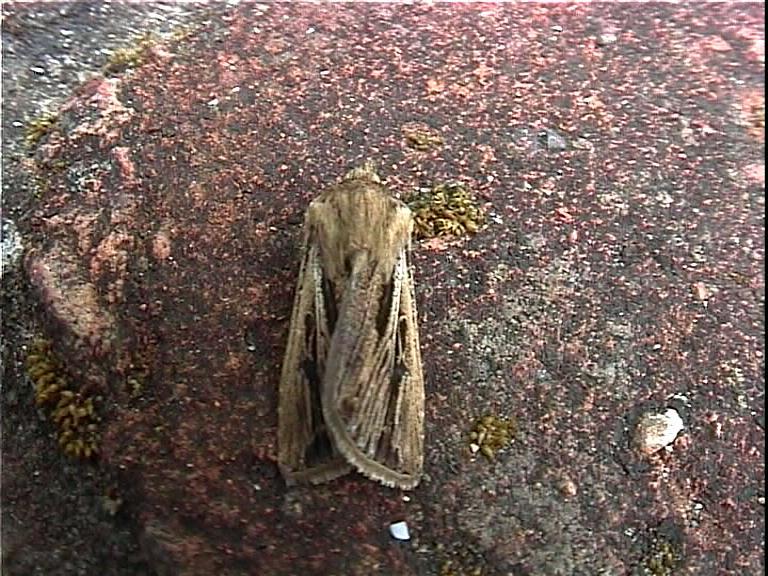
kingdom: Animalia
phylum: Arthropoda
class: Insecta
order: Lepidoptera
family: Noctuidae
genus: Agrotis
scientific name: Agrotis innominata
